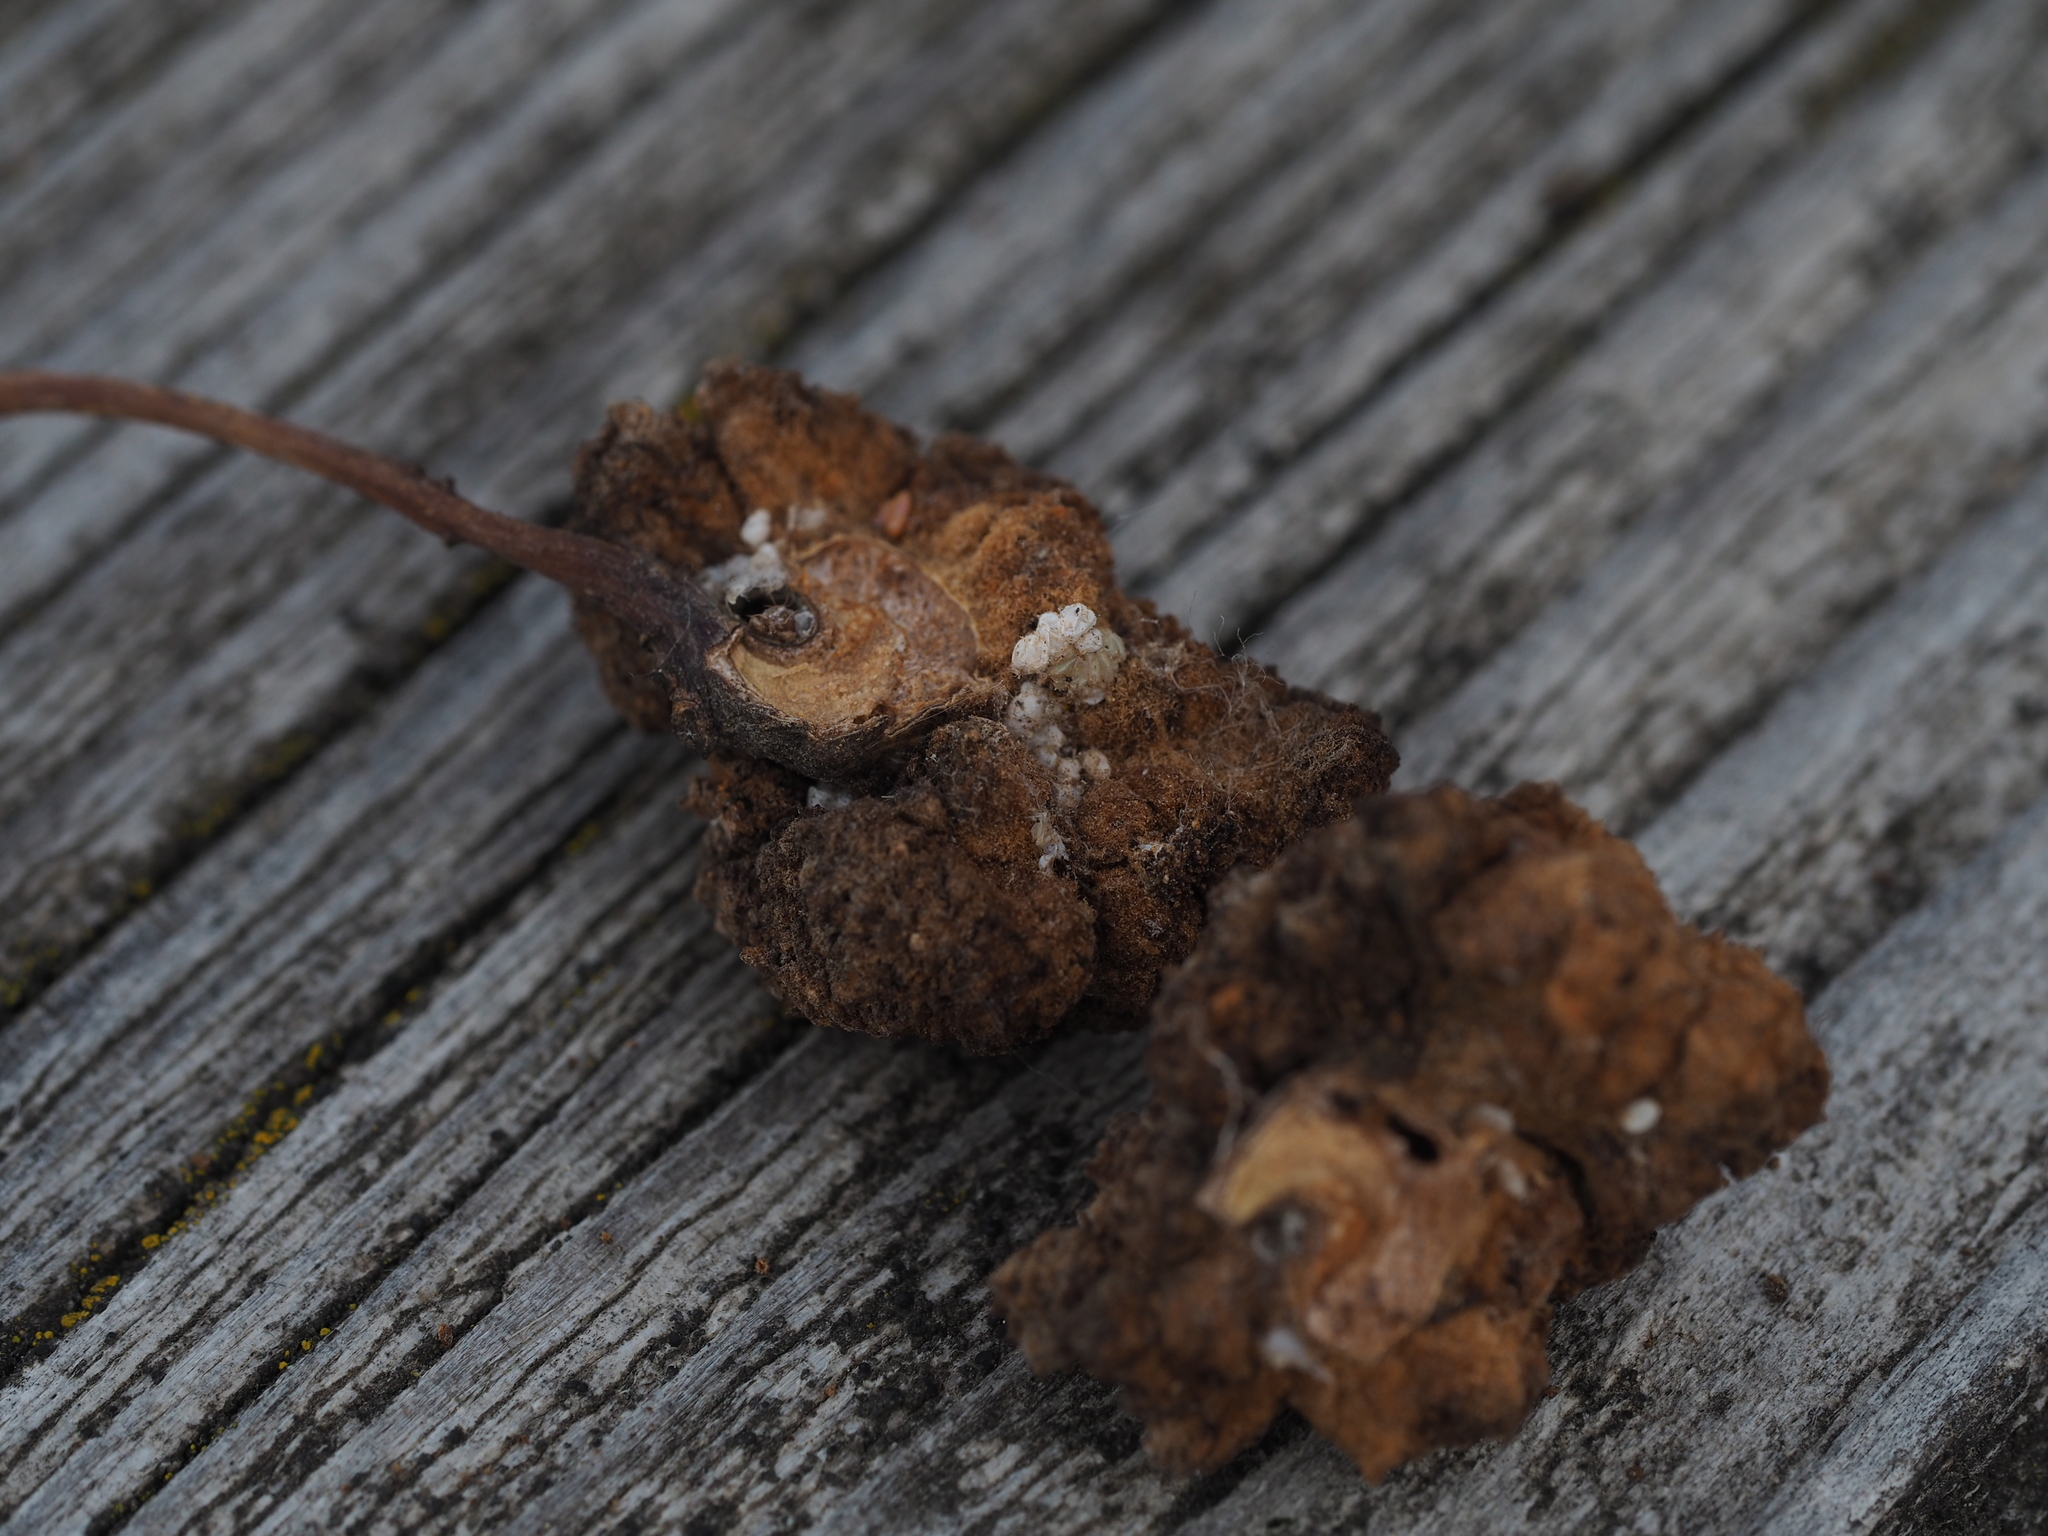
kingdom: Animalia
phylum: Arthropoda
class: Insecta
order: Diptera
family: Cecidomyiidae
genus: Arthrocnodax
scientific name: Arthrocnodax fraxinellus
